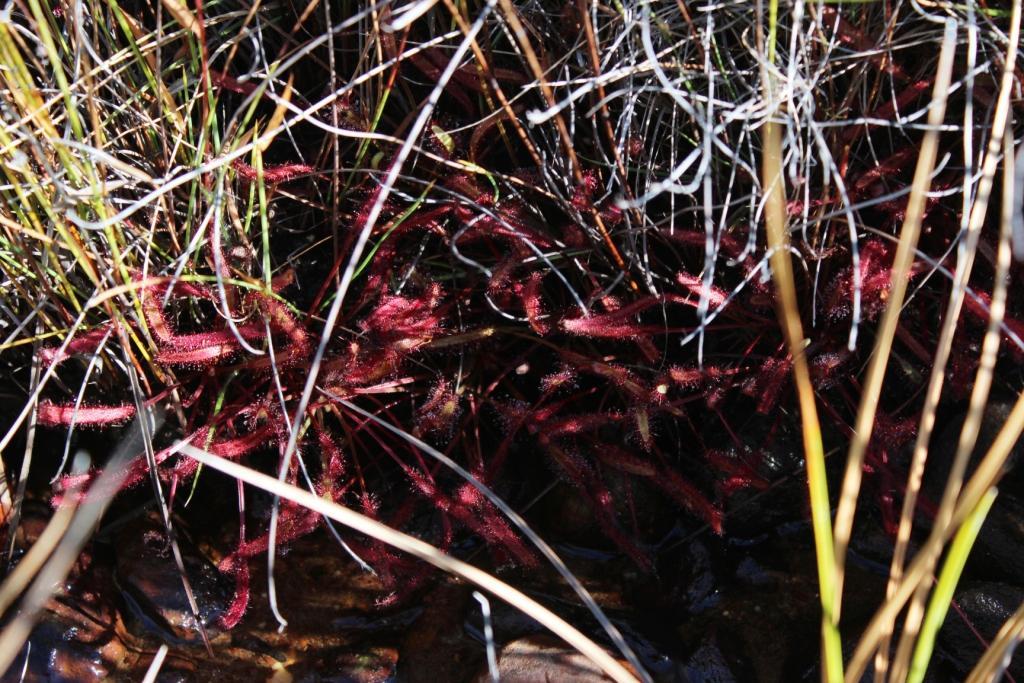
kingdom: Plantae
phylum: Tracheophyta
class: Magnoliopsida
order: Caryophyllales
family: Droseraceae
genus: Drosera
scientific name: Drosera capensis
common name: Cape sundew
